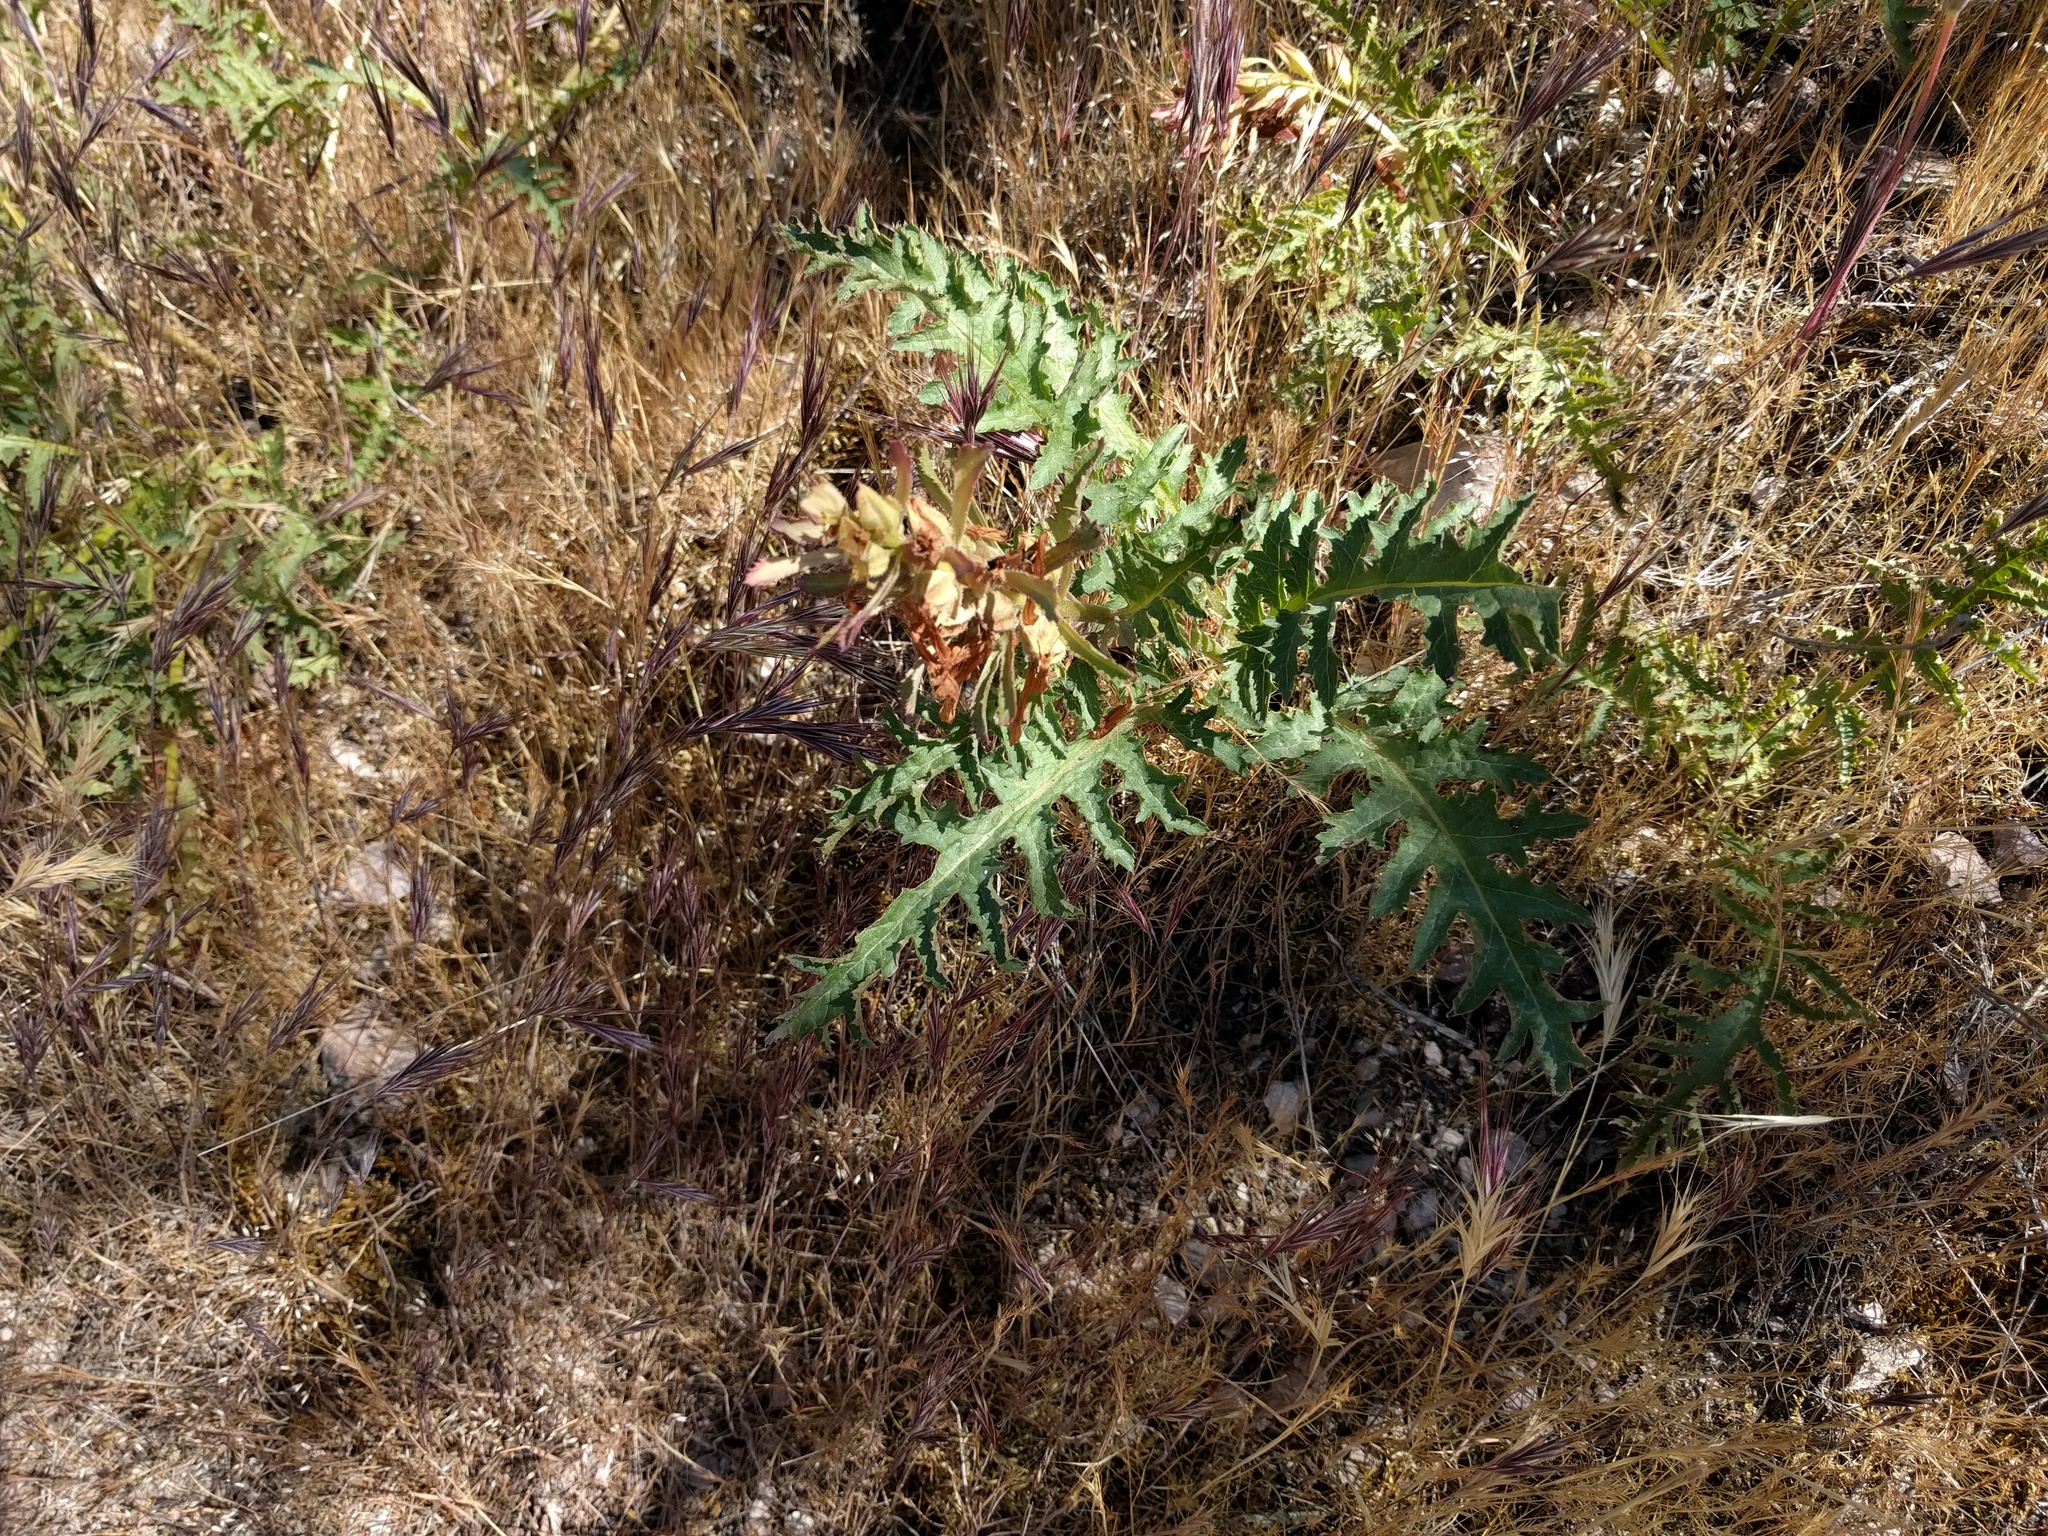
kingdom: Plantae
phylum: Tracheophyta
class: Magnoliopsida
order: Lamiales
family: Orobanchaceae
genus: Pedicularis
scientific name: Pedicularis densiflora
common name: Indian warrior
